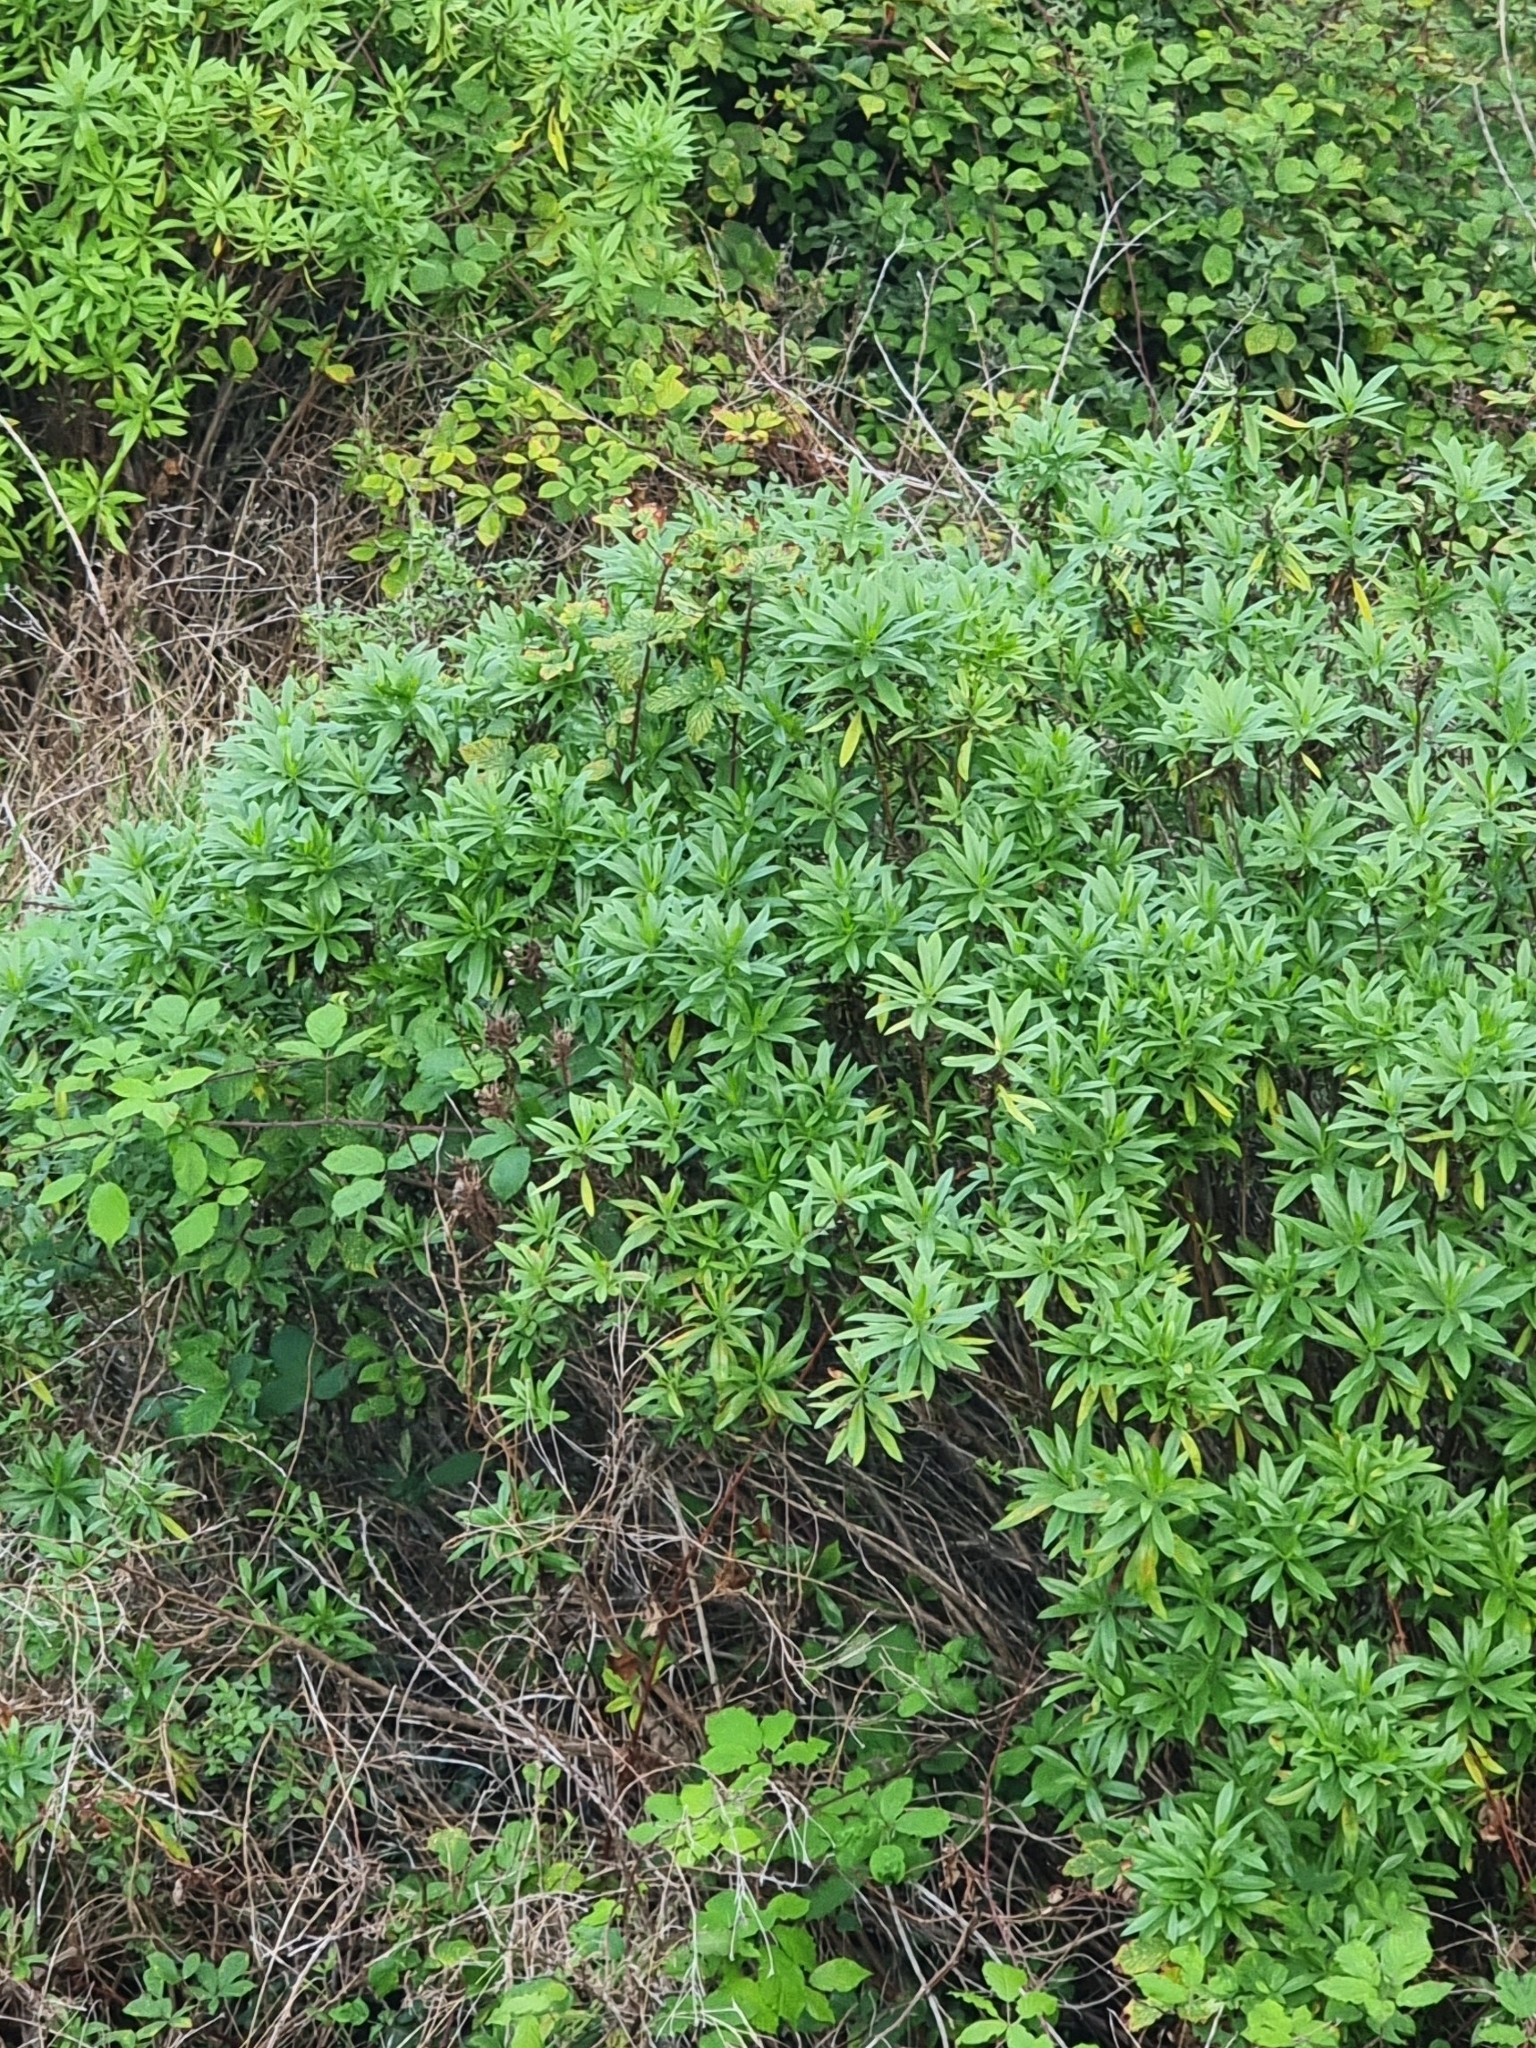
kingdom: Plantae
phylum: Tracheophyta
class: Magnoliopsida
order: Lamiales
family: Plantaginaceae
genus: Globularia
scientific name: Globularia salicina
